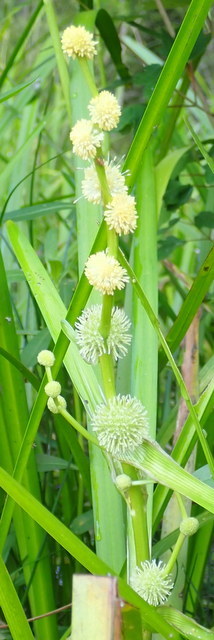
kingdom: Plantae
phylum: Tracheophyta
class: Liliopsida
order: Poales
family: Typhaceae
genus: Sparganium
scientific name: Sparganium americanum
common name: American burreed
